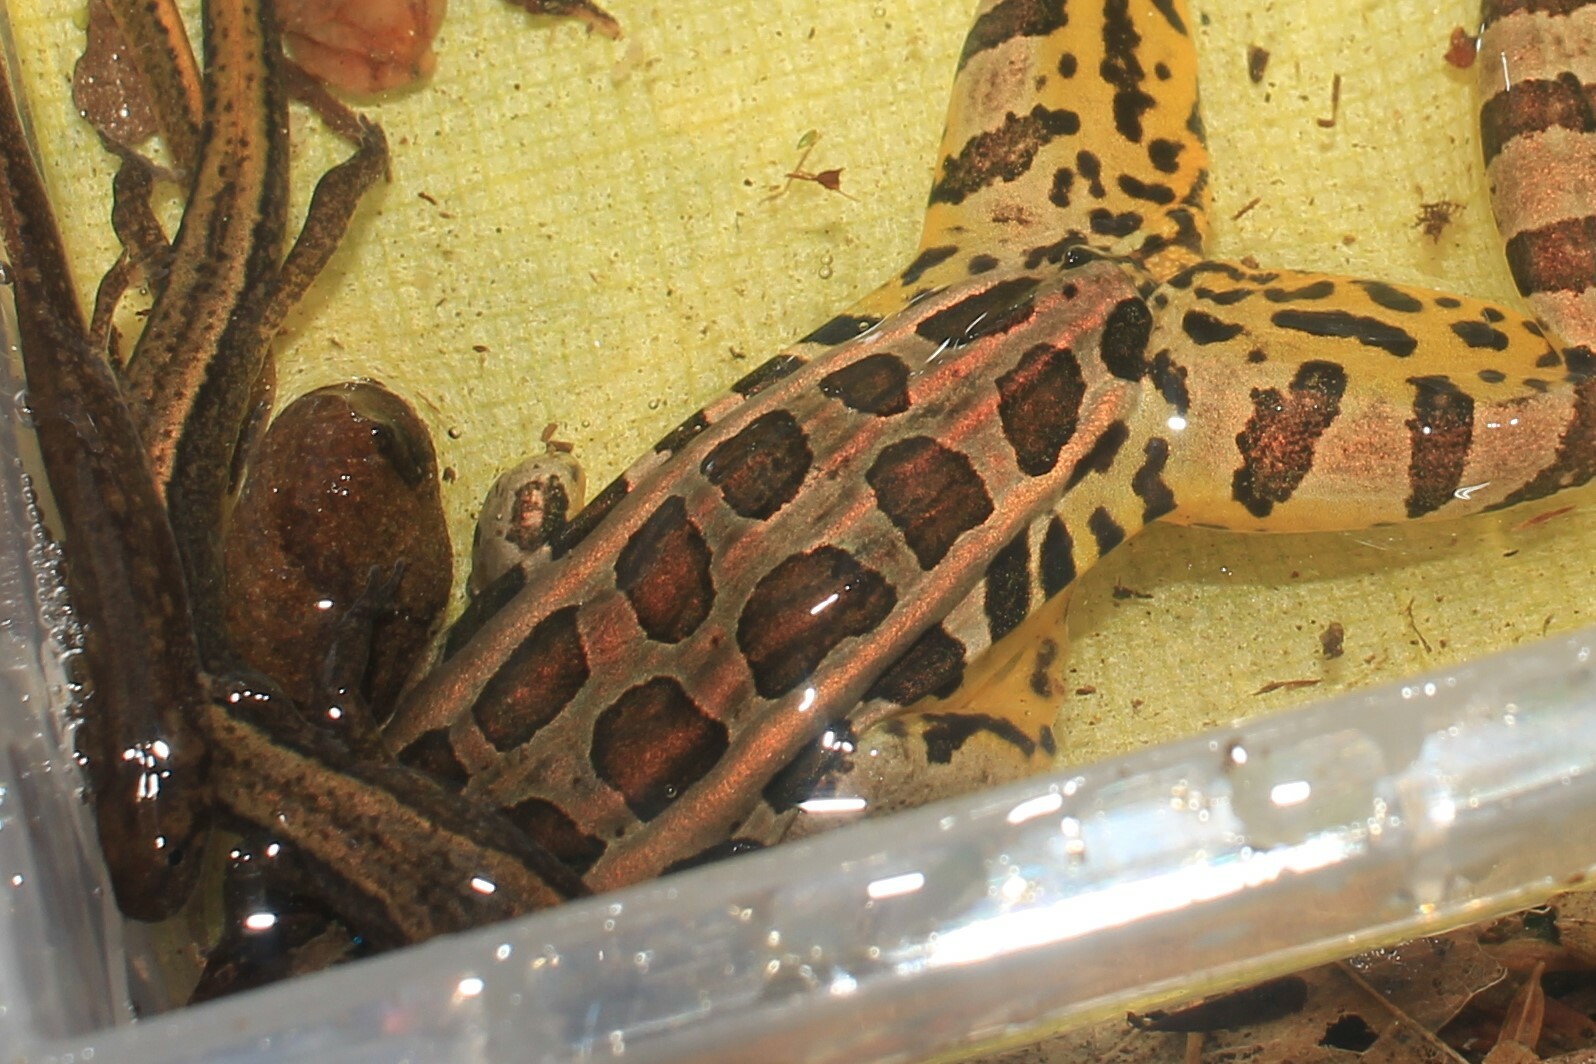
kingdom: Animalia
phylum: Chordata
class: Amphibia
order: Anura
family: Ranidae
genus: Lithobates
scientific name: Lithobates palustris
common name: Pickerel frog
